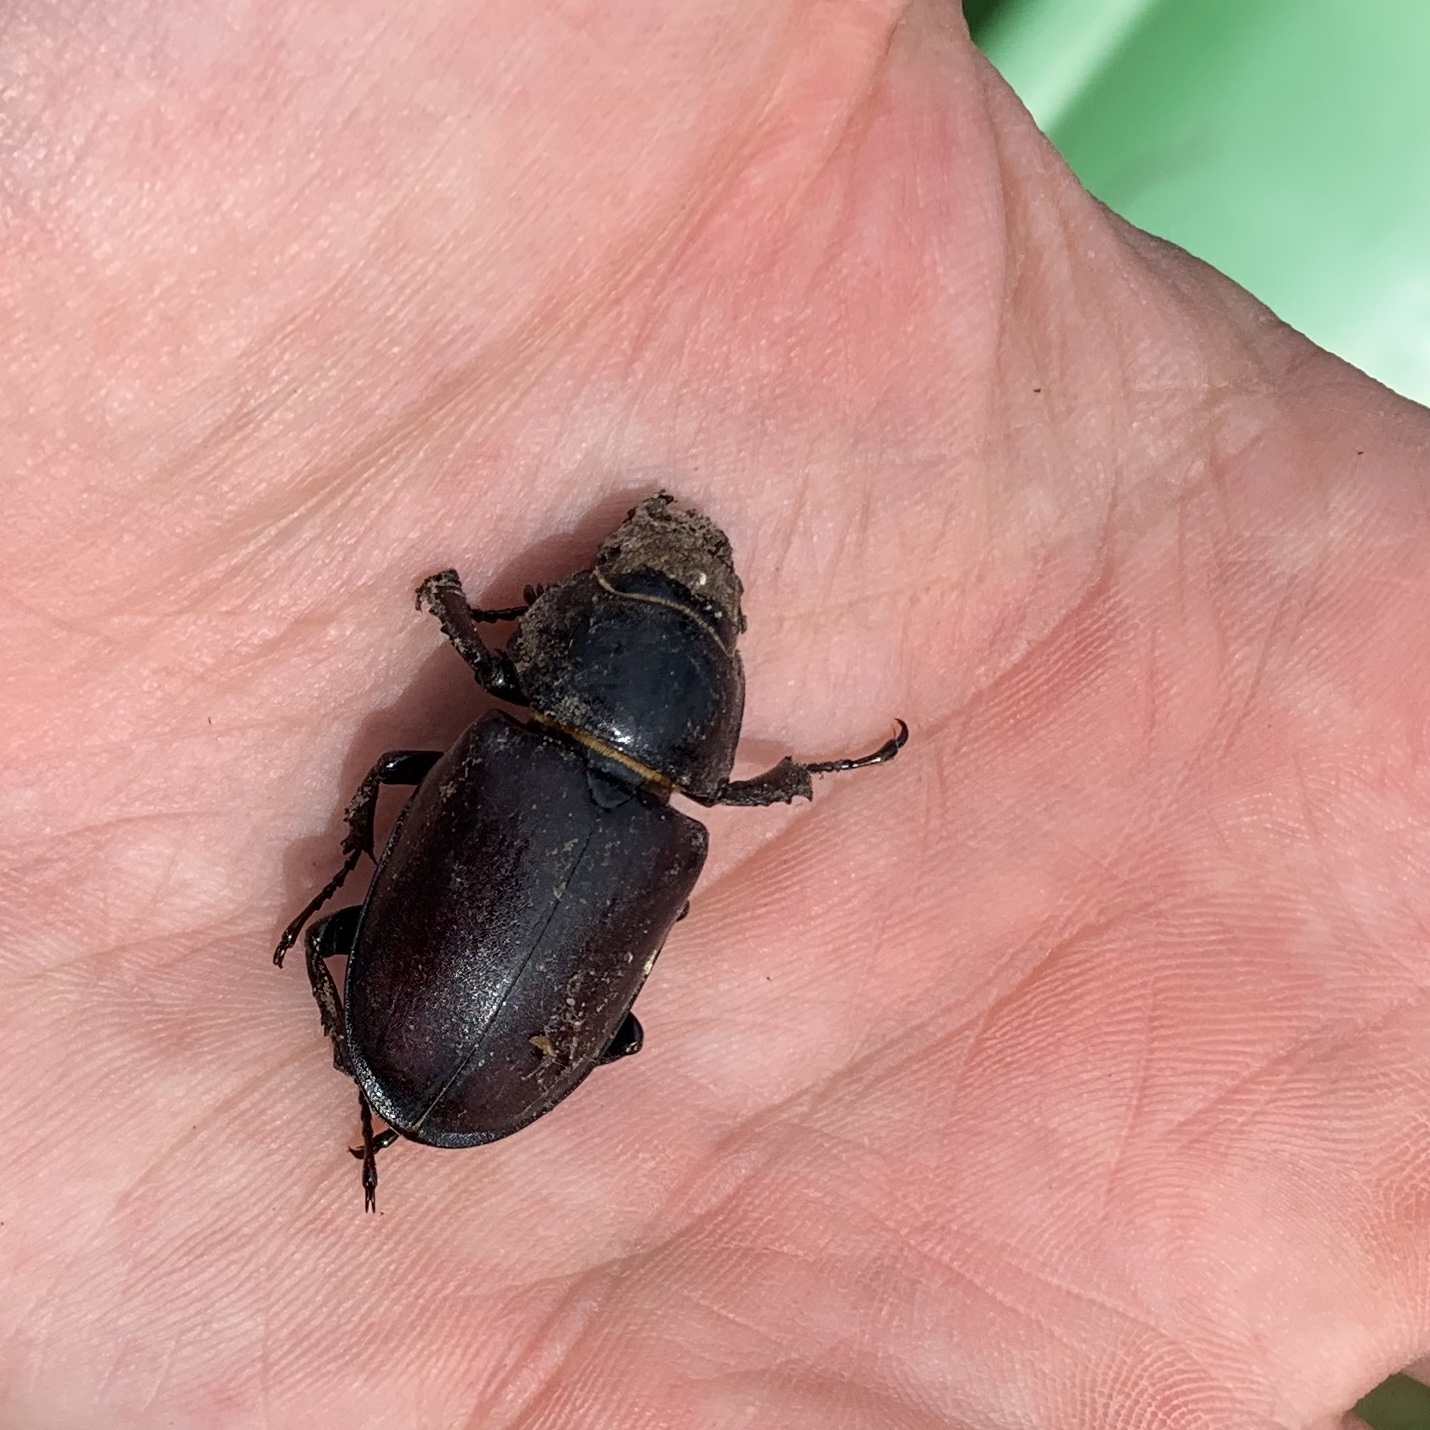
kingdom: Animalia
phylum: Arthropoda
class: Insecta
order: Coleoptera
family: Lucanidae
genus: Lucanus
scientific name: Lucanus cervus
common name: Stag beetle
